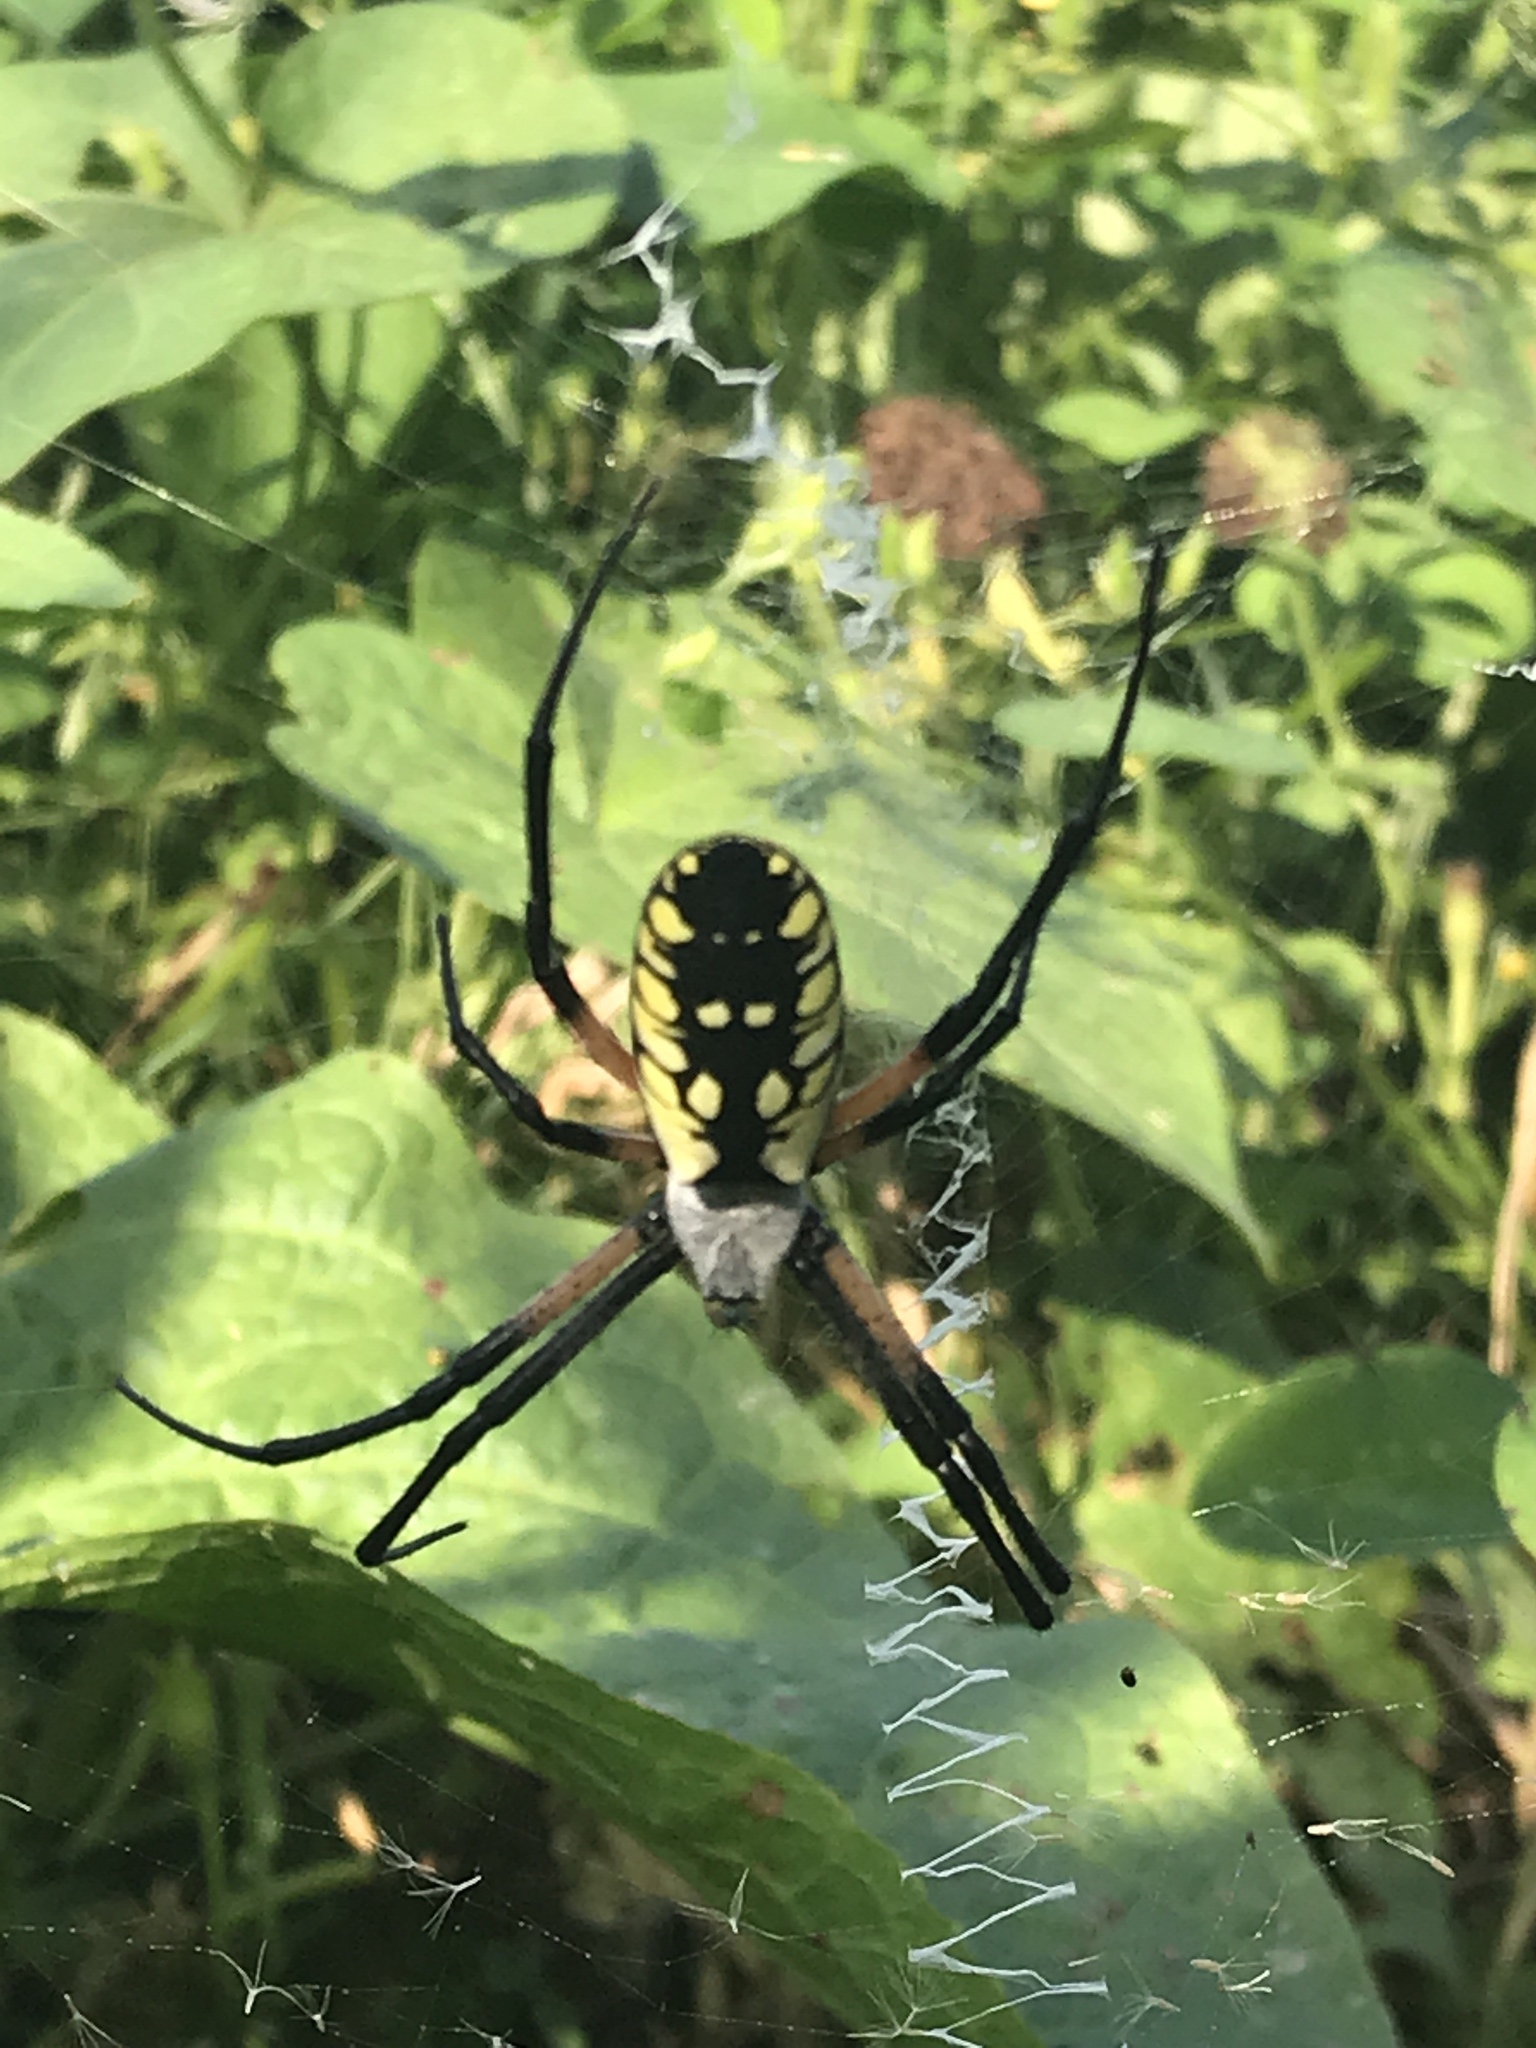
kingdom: Animalia
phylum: Arthropoda
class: Arachnida
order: Araneae
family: Araneidae
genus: Argiope
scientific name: Argiope aurantia
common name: Orb weavers
